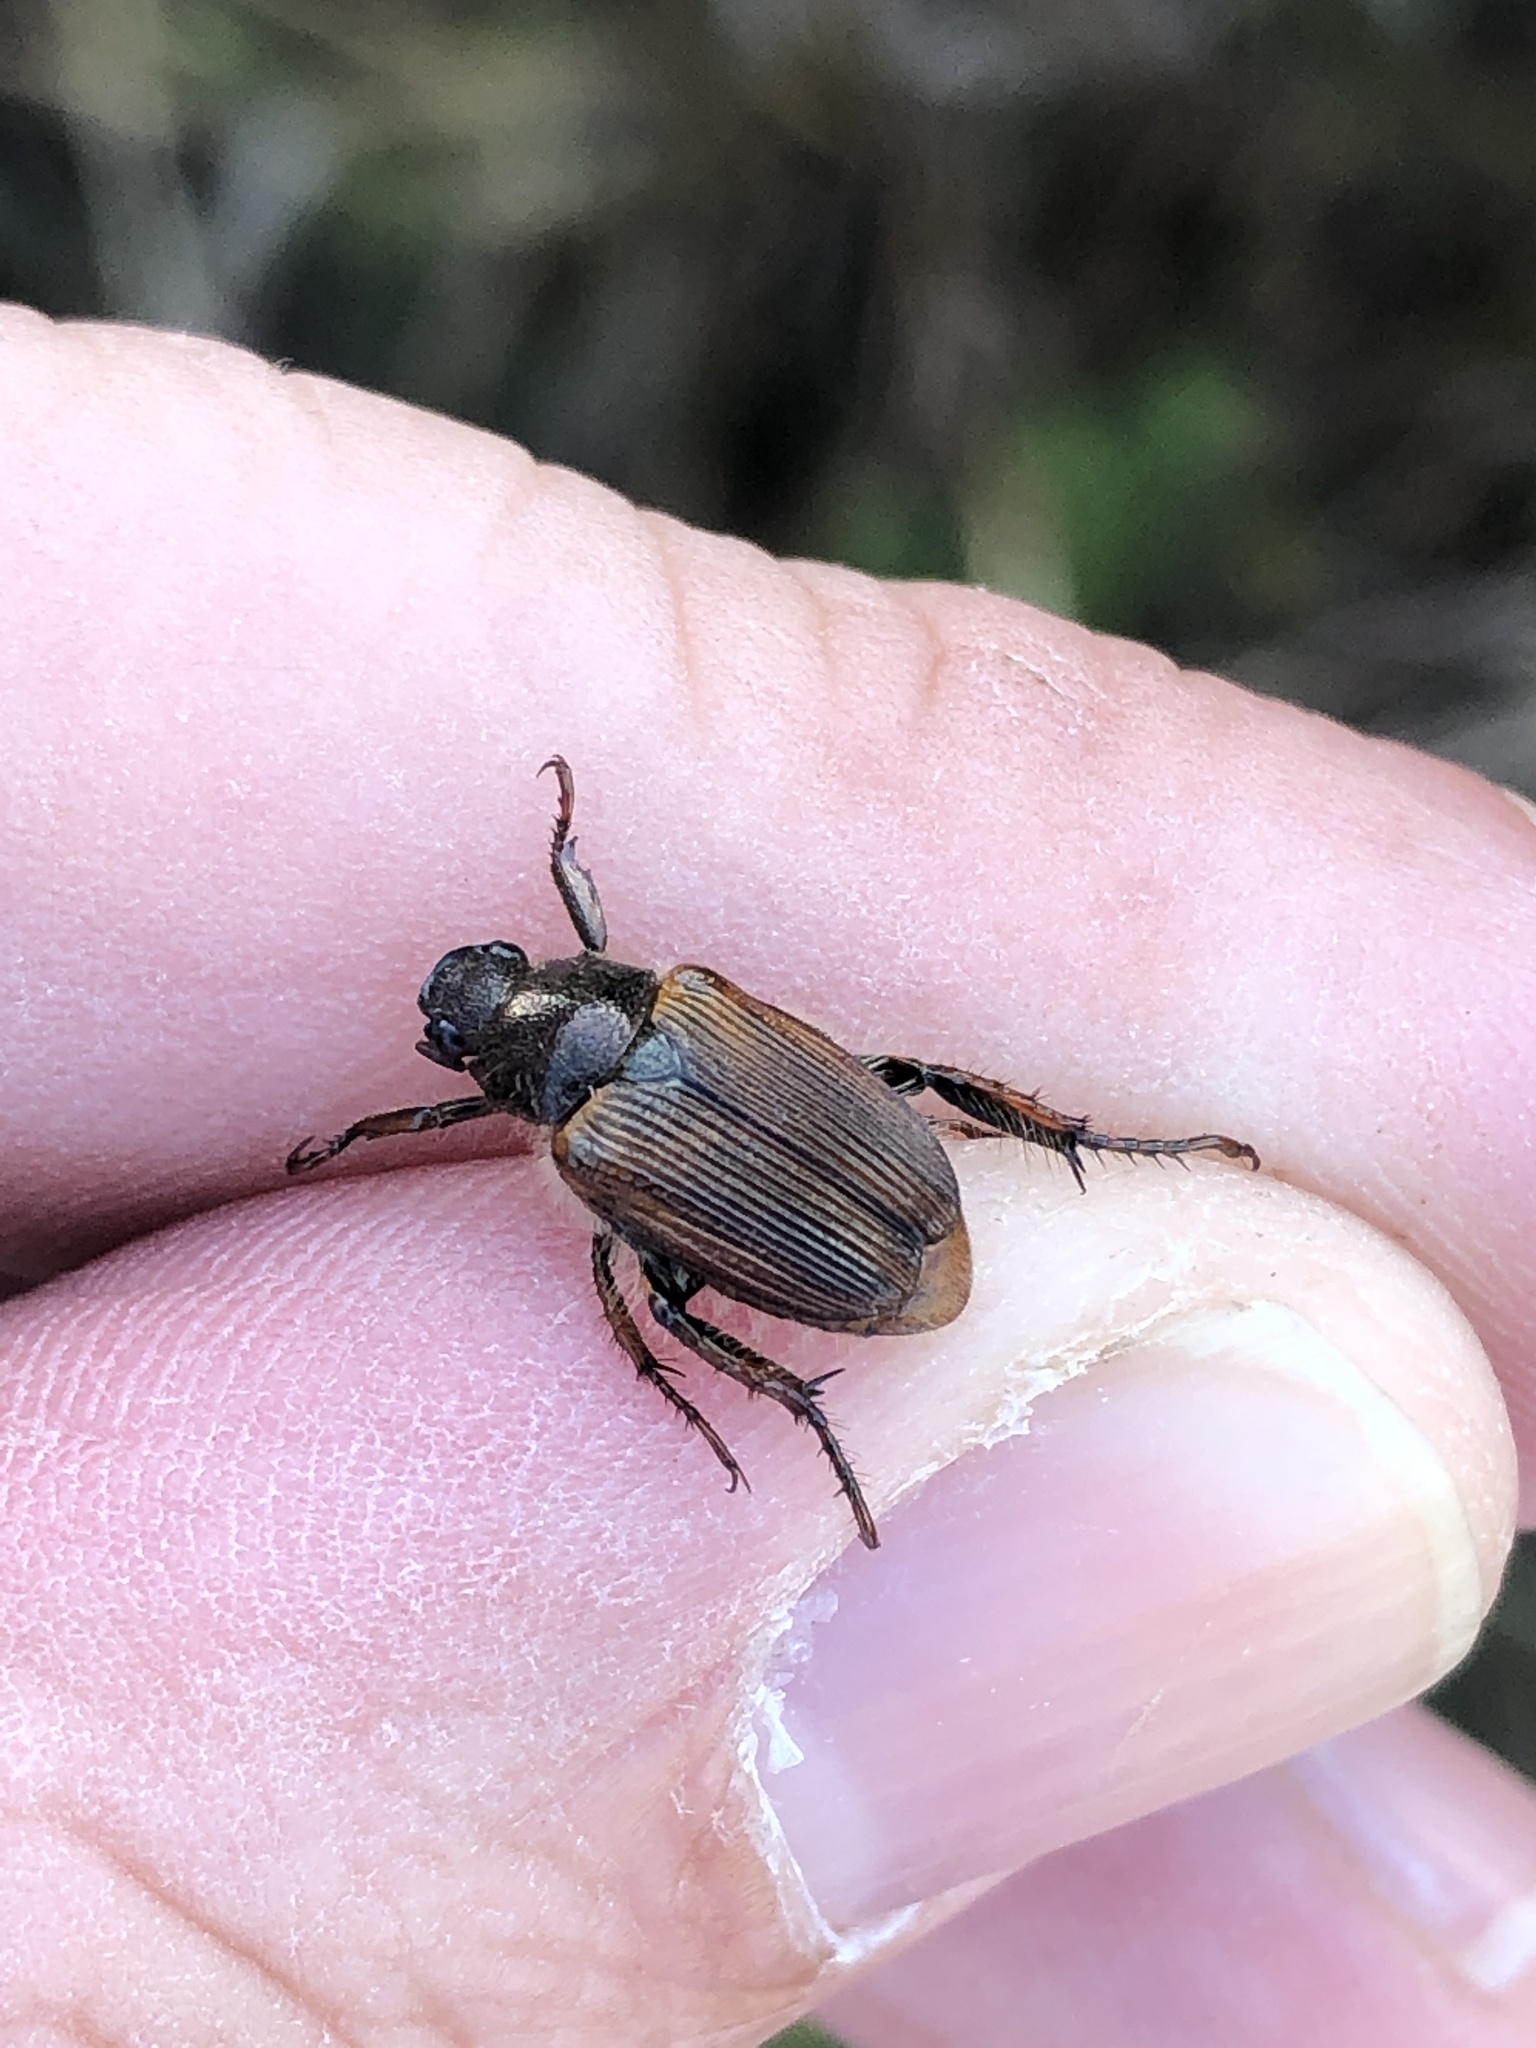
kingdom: Animalia
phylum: Arthropoda
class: Insecta
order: Coleoptera
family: Scarabaeidae
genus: Strigoderma
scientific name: Strigoderma arbicola
